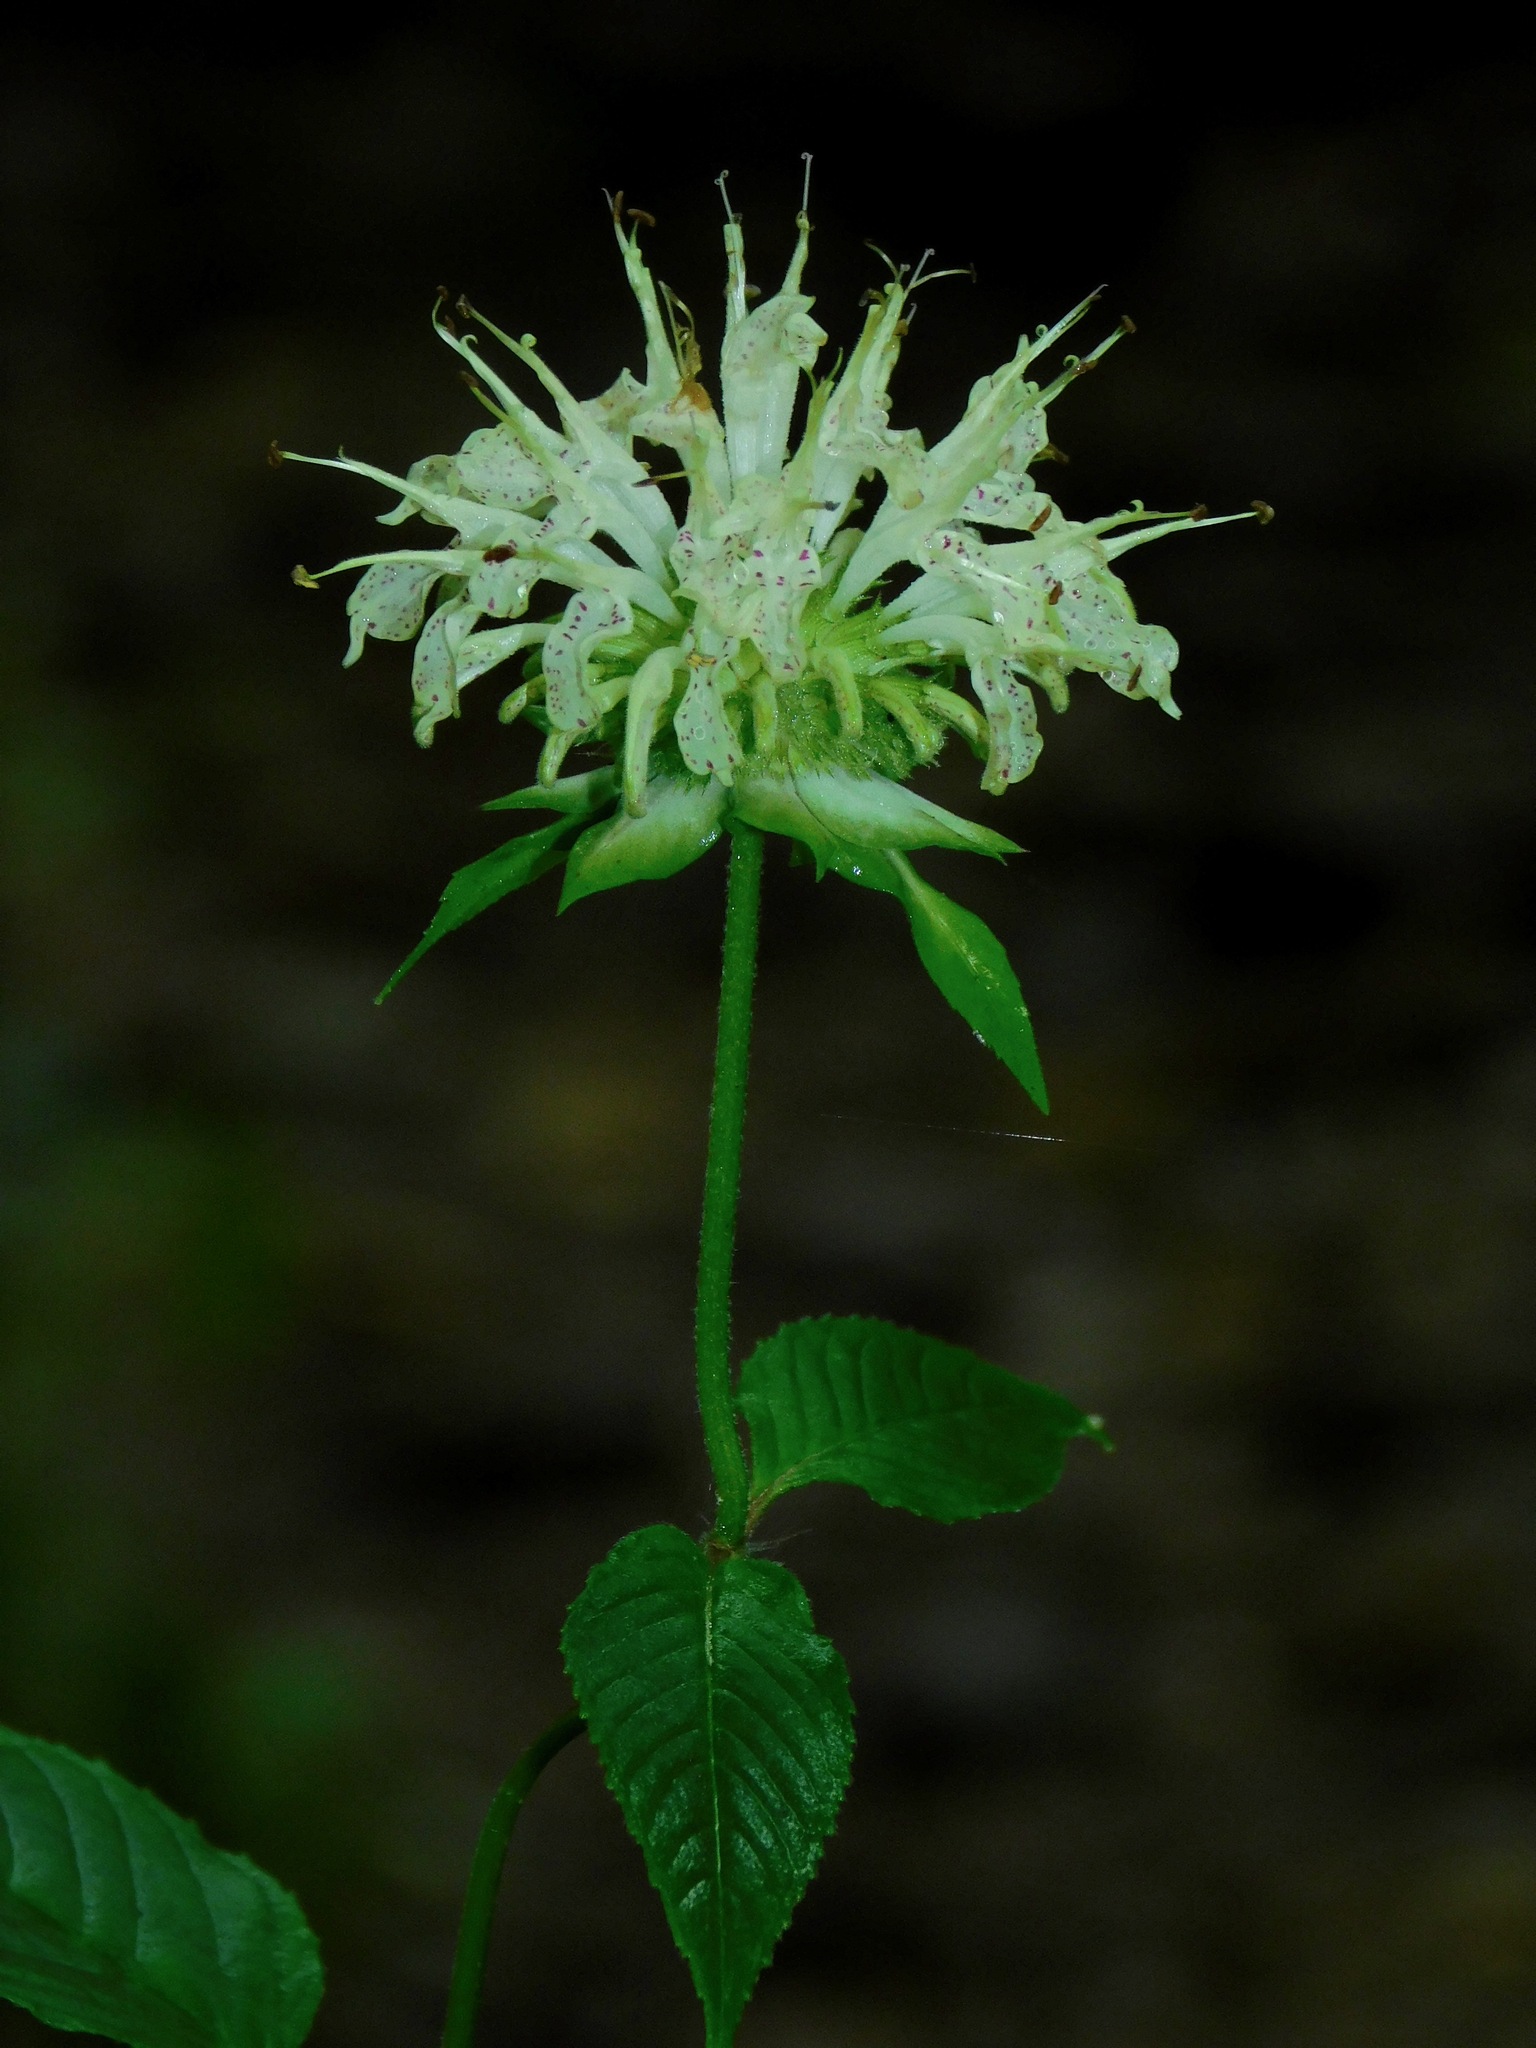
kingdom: Plantae
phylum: Tracheophyta
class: Magnoliopsida
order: Lamiales
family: Lamiaceae
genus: Monarda
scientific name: Monarda clinopodia
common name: Basil beebalm
